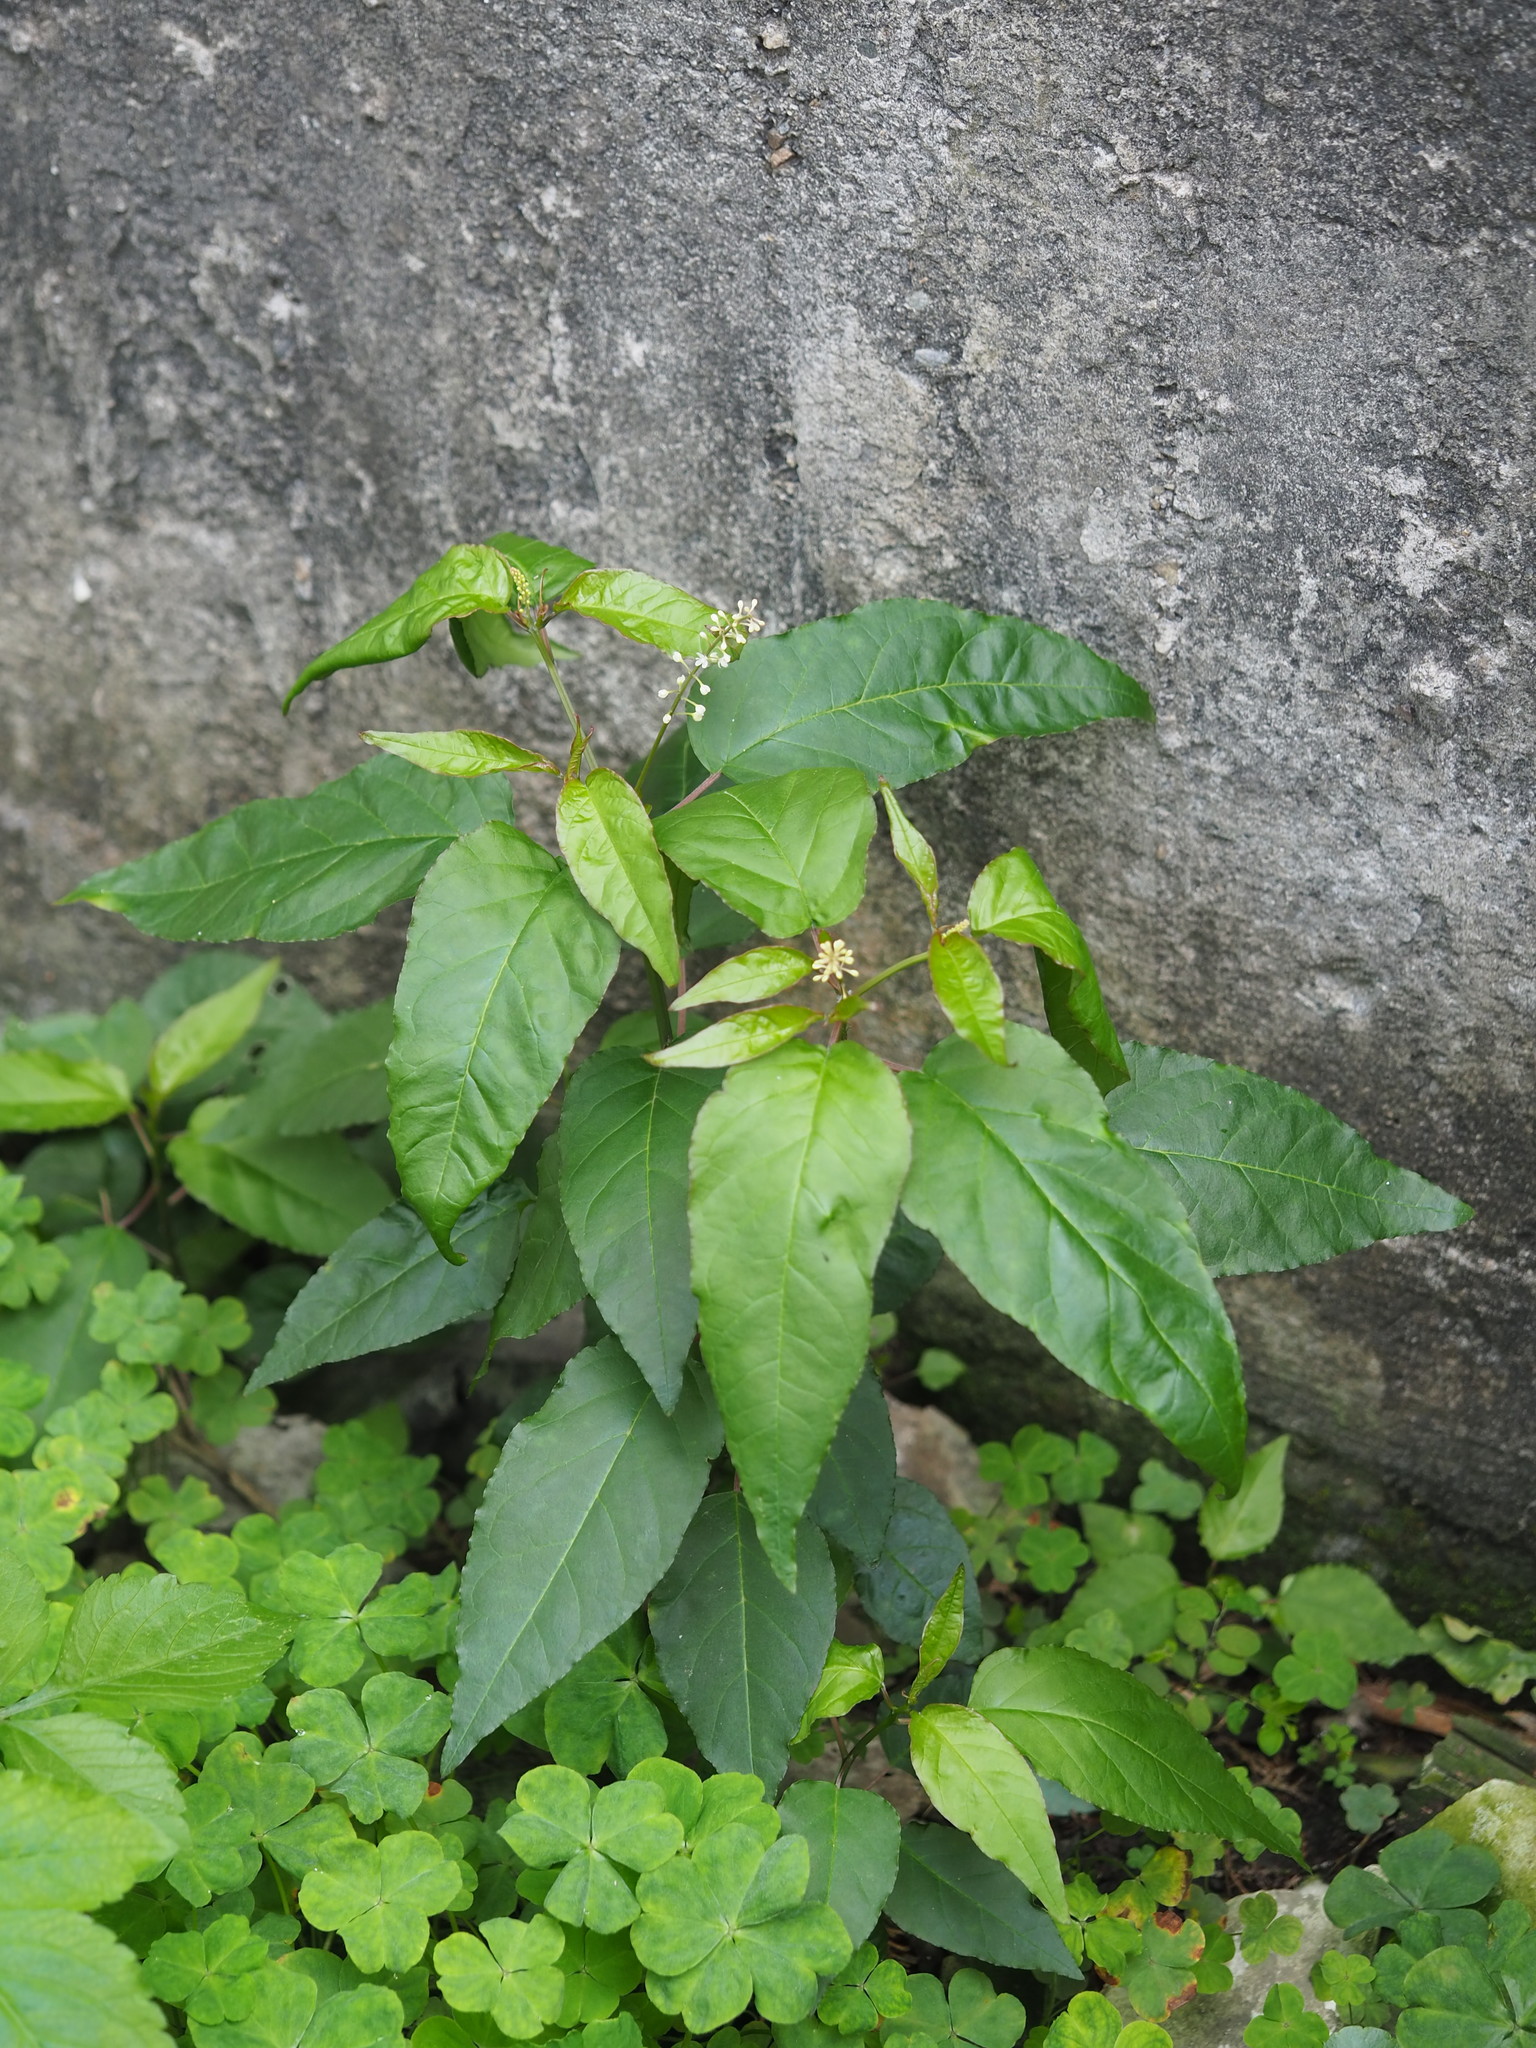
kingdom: Plantae
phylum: Tracheophyta
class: Magnoliopsida
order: Caryophyllales
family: Phytolaccaceae
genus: Rivina
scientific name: Rivina humilis
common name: Rougeplant
